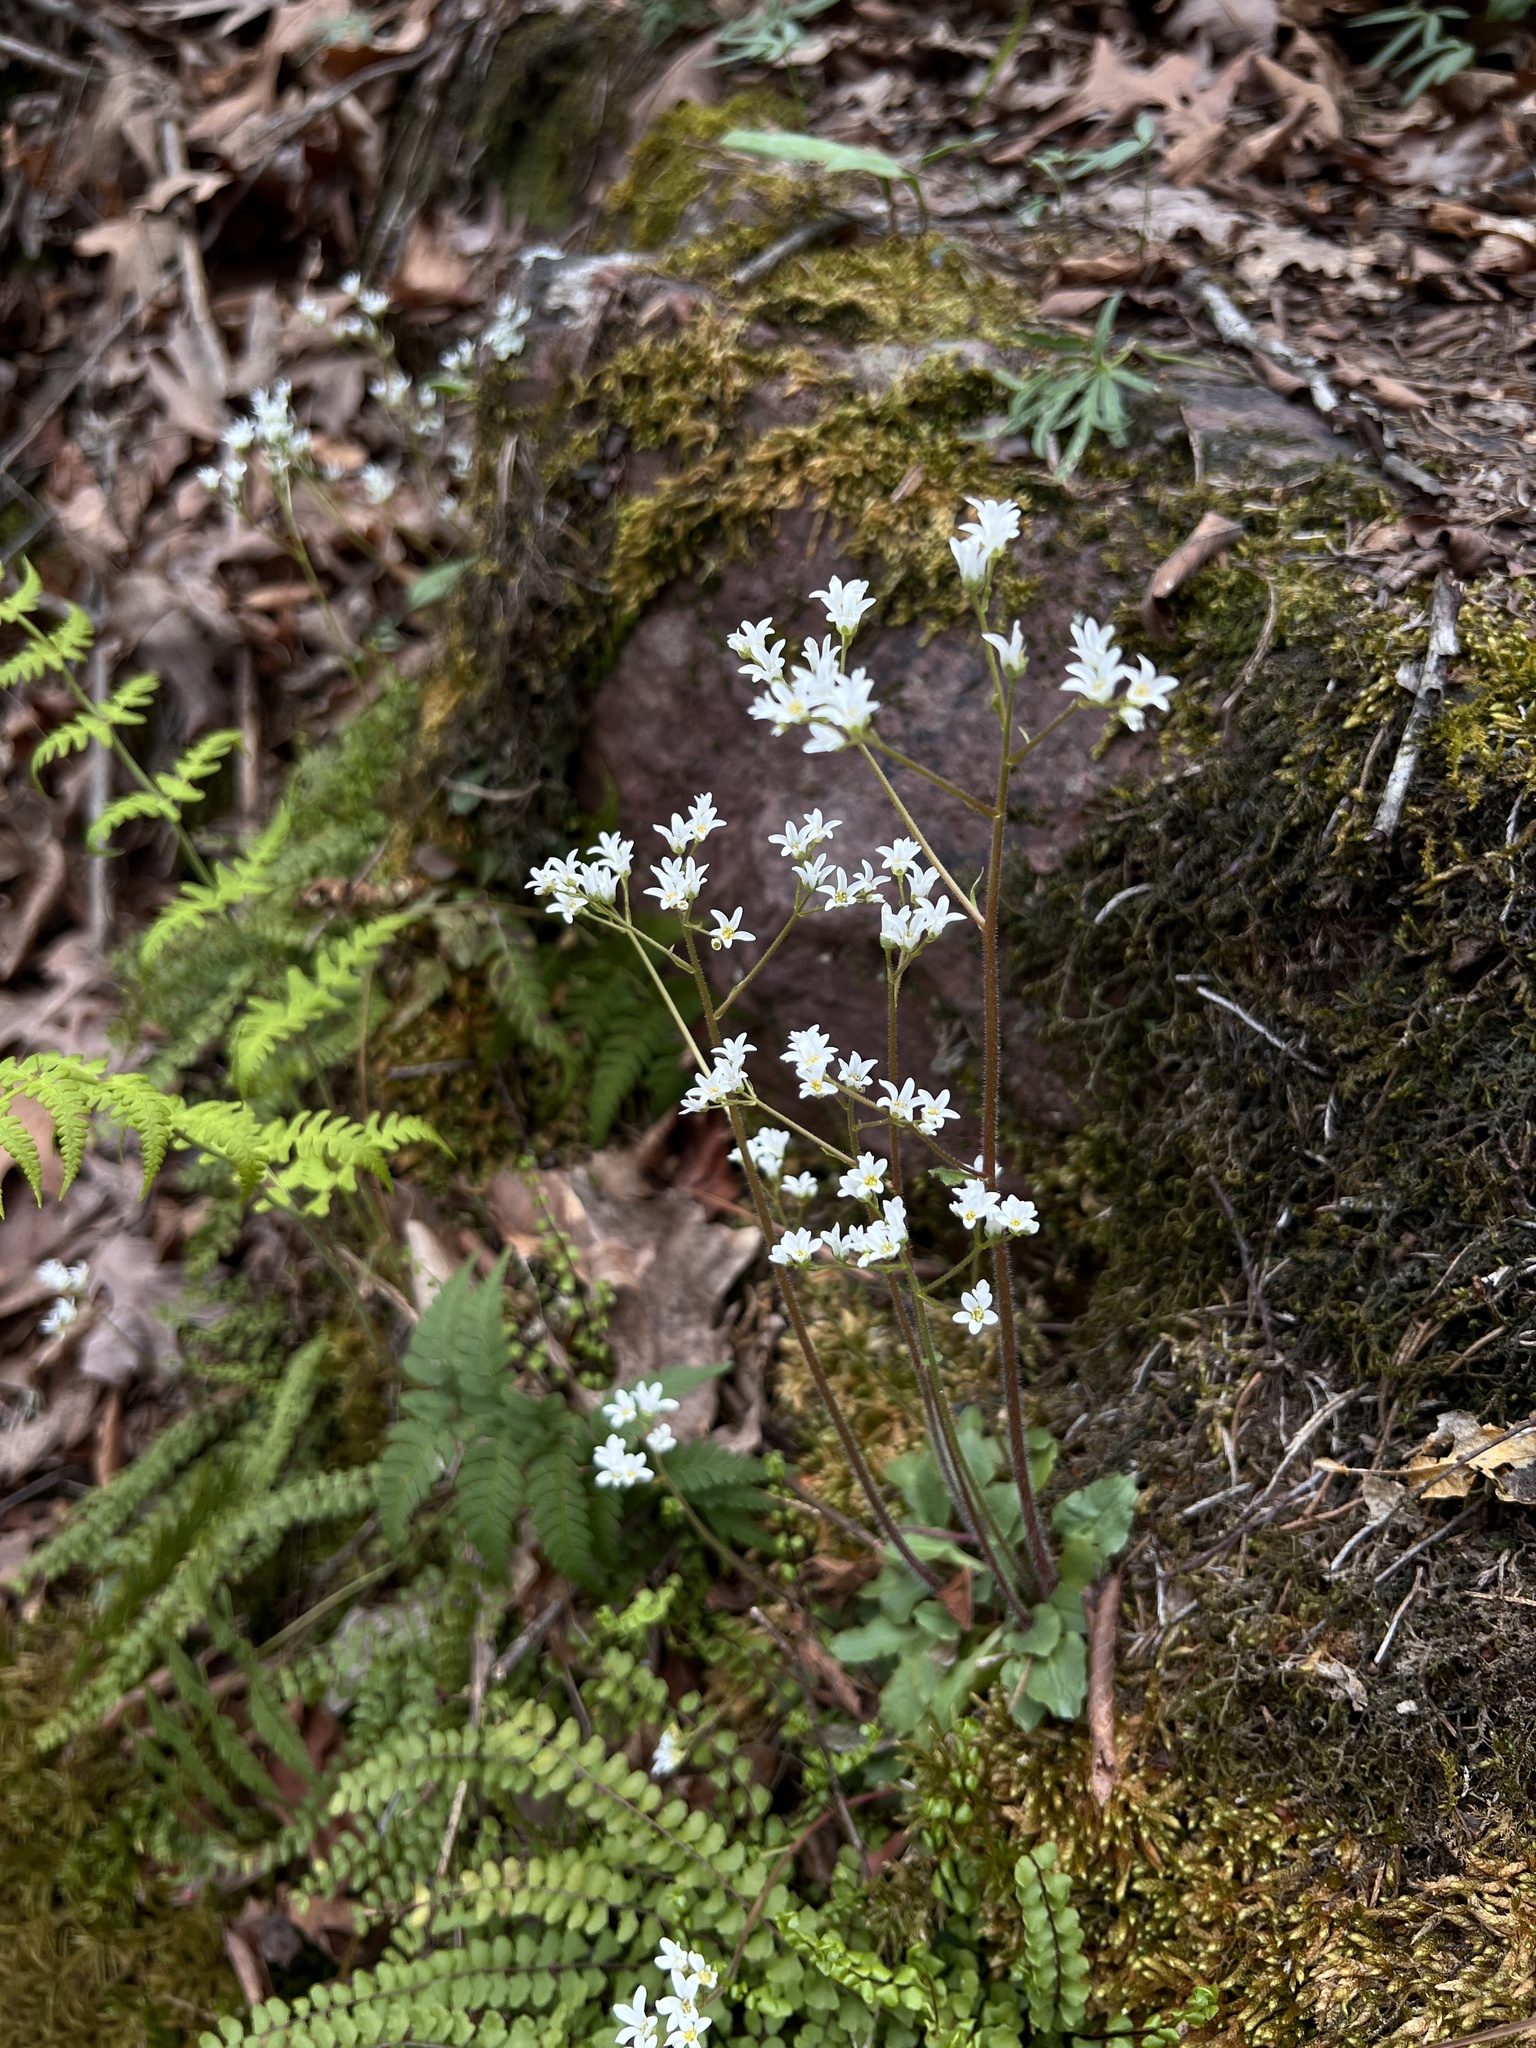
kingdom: Plantae
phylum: Tracheophyta
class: Magnoliopsida
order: Saxifragales
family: Saxifragaceae
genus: Micranthes
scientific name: Micranthes virginiensis
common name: Early saxifrage
